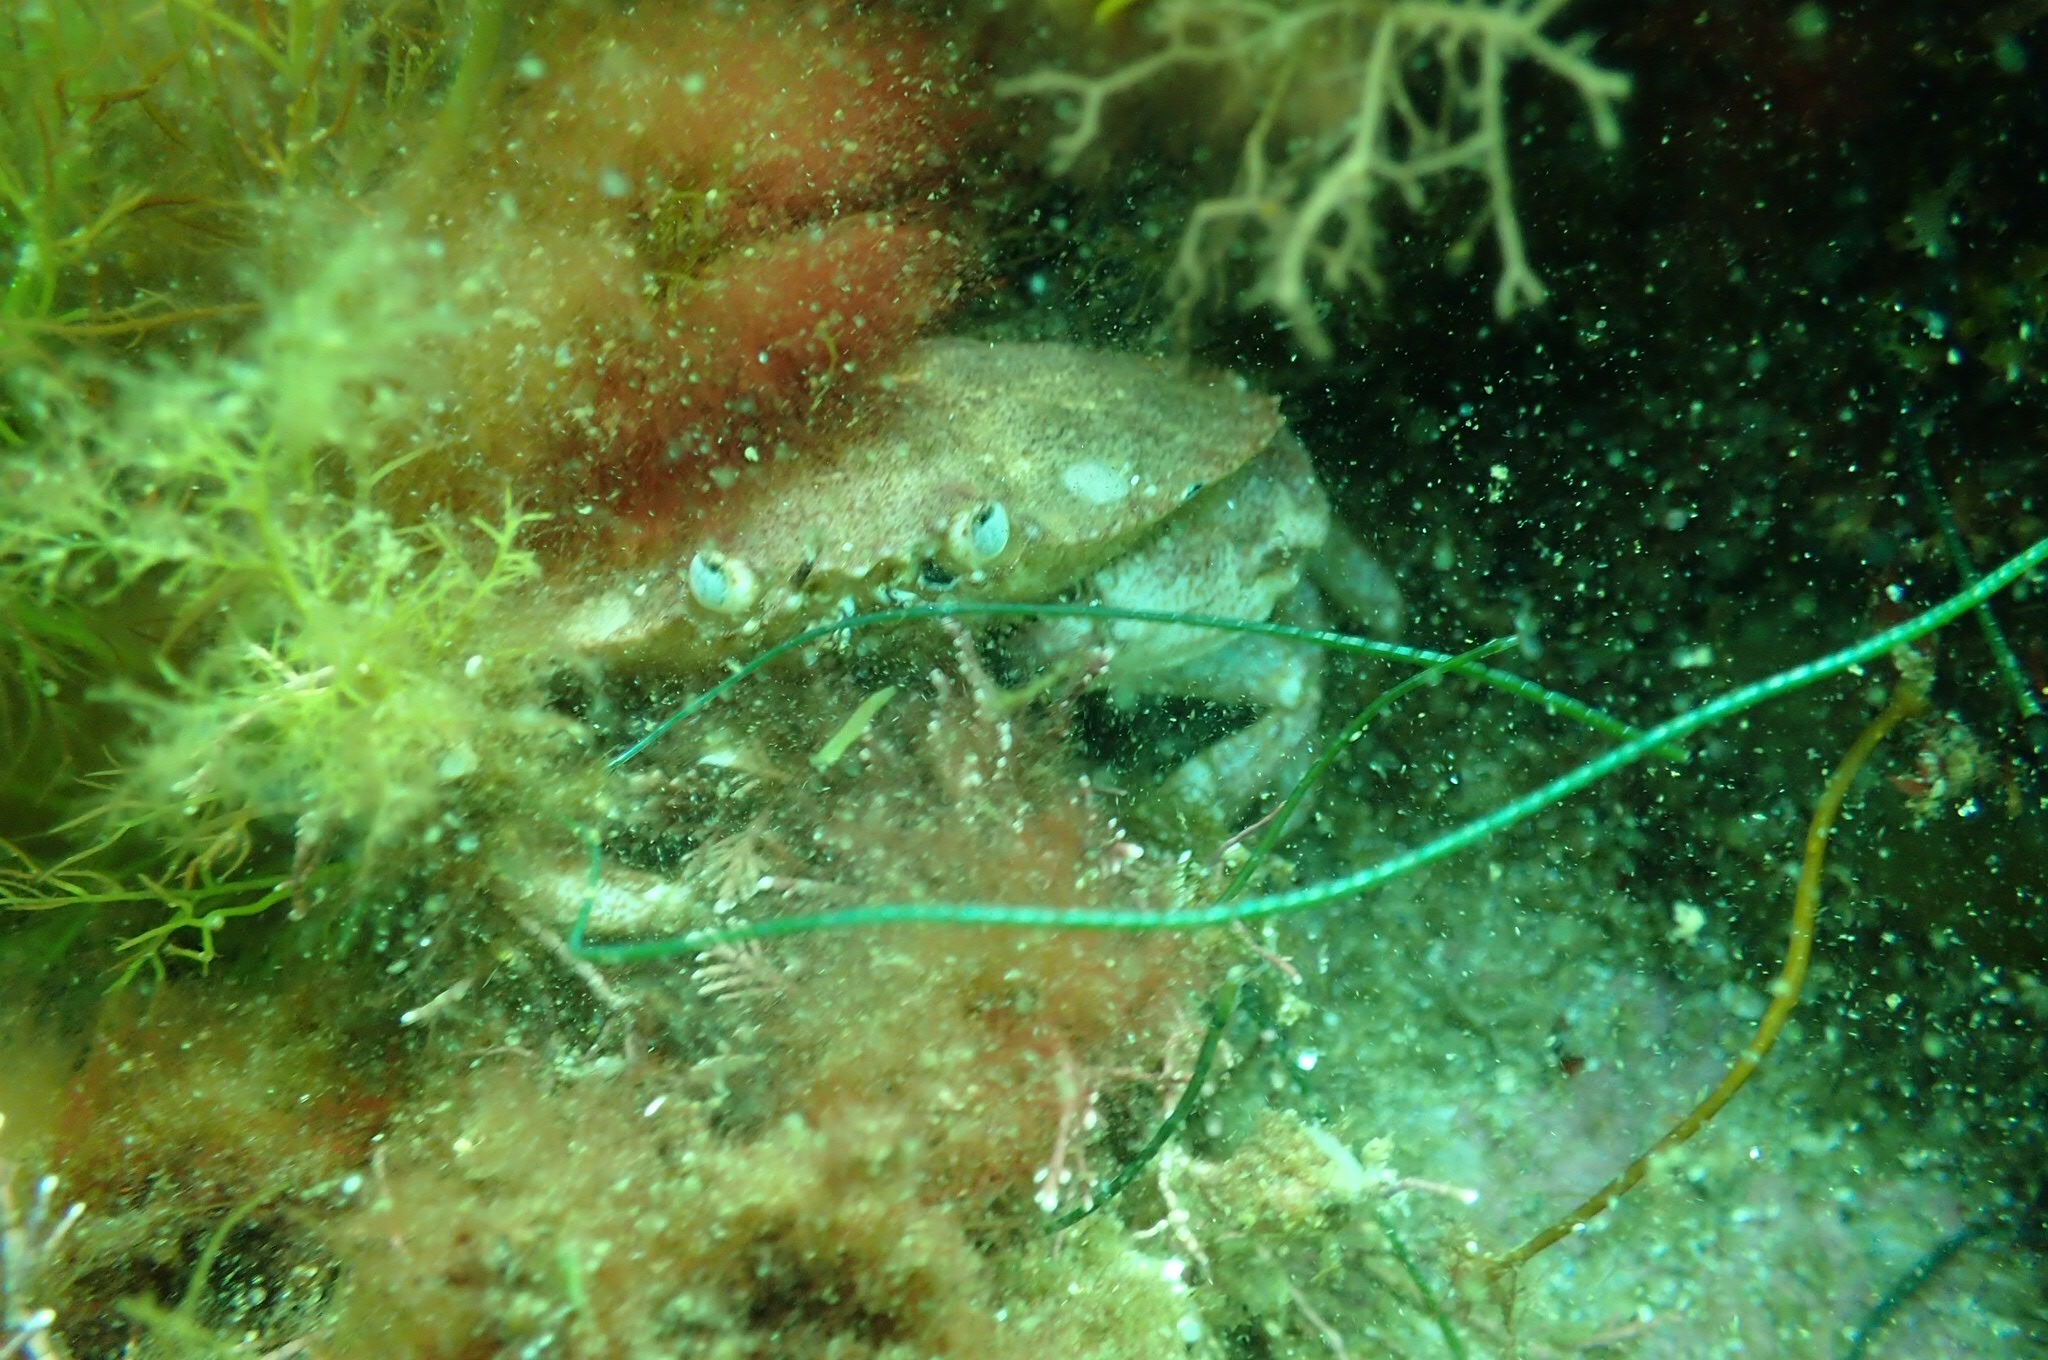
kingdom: Animalia
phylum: Arthropoda
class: Malacostraca
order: Decapoda
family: Cancridae
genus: Cancer
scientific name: Cancer irroratus
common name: Atlantic rock crab
